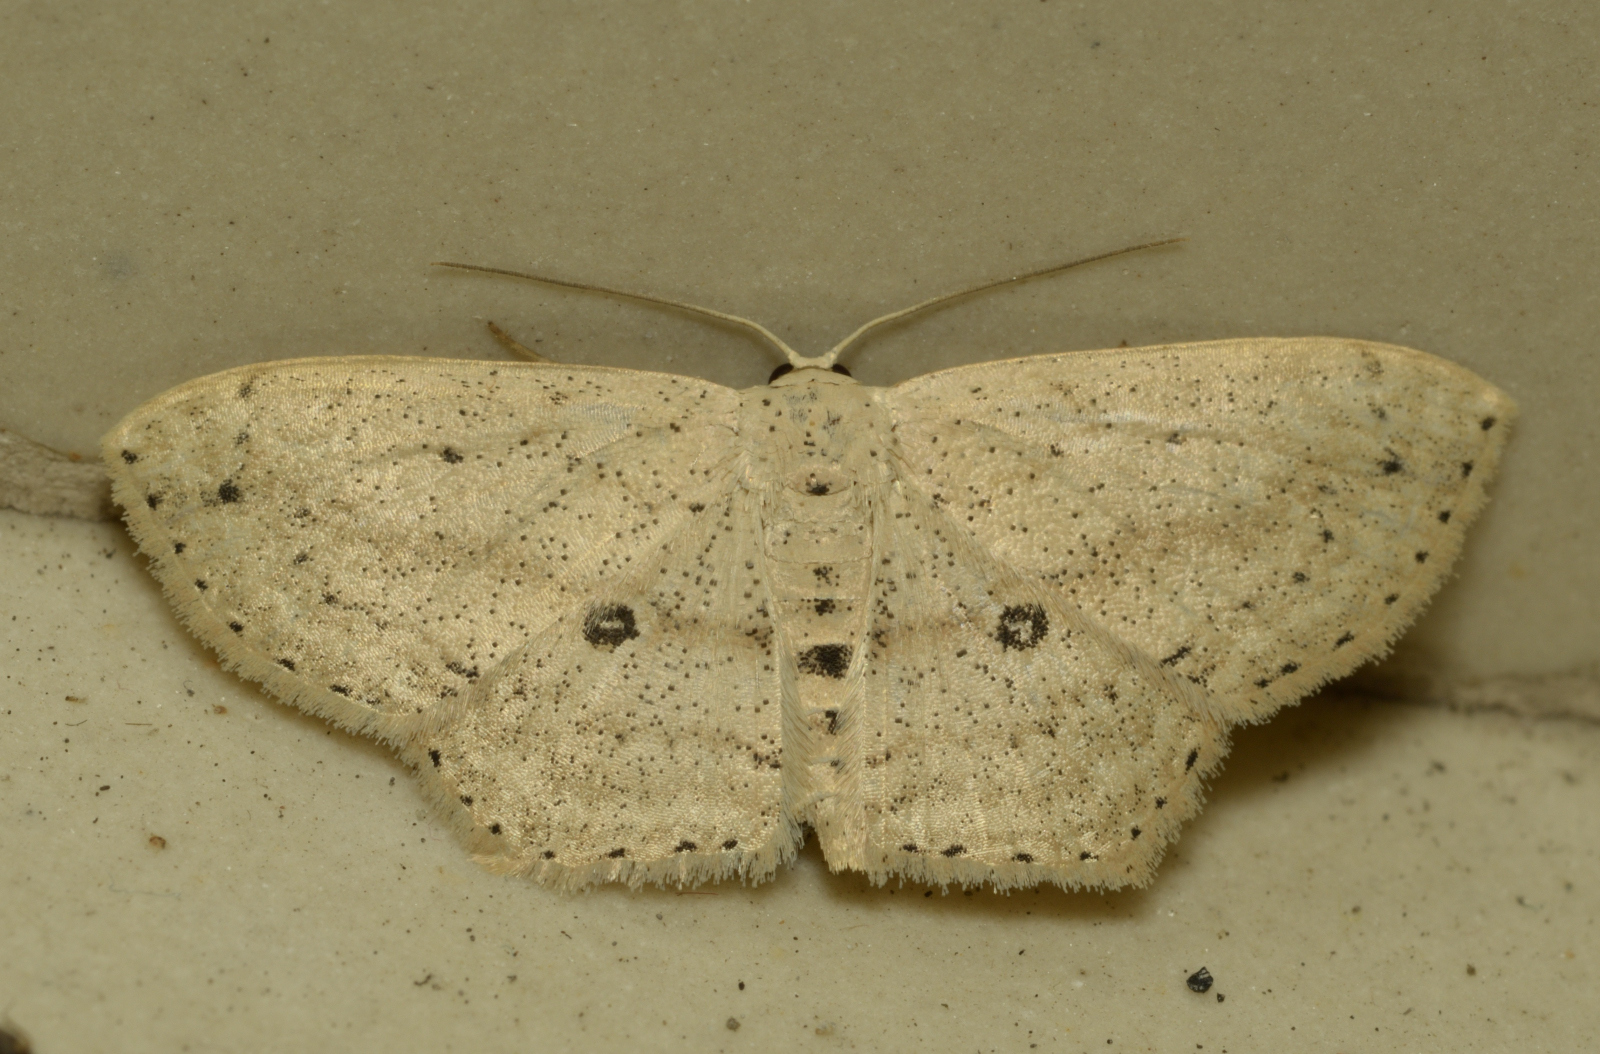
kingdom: Animalia
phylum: Arthropoda
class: Insecta
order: Lepidoptera
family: Geometridae
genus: Scopula
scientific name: Scopula annularia
